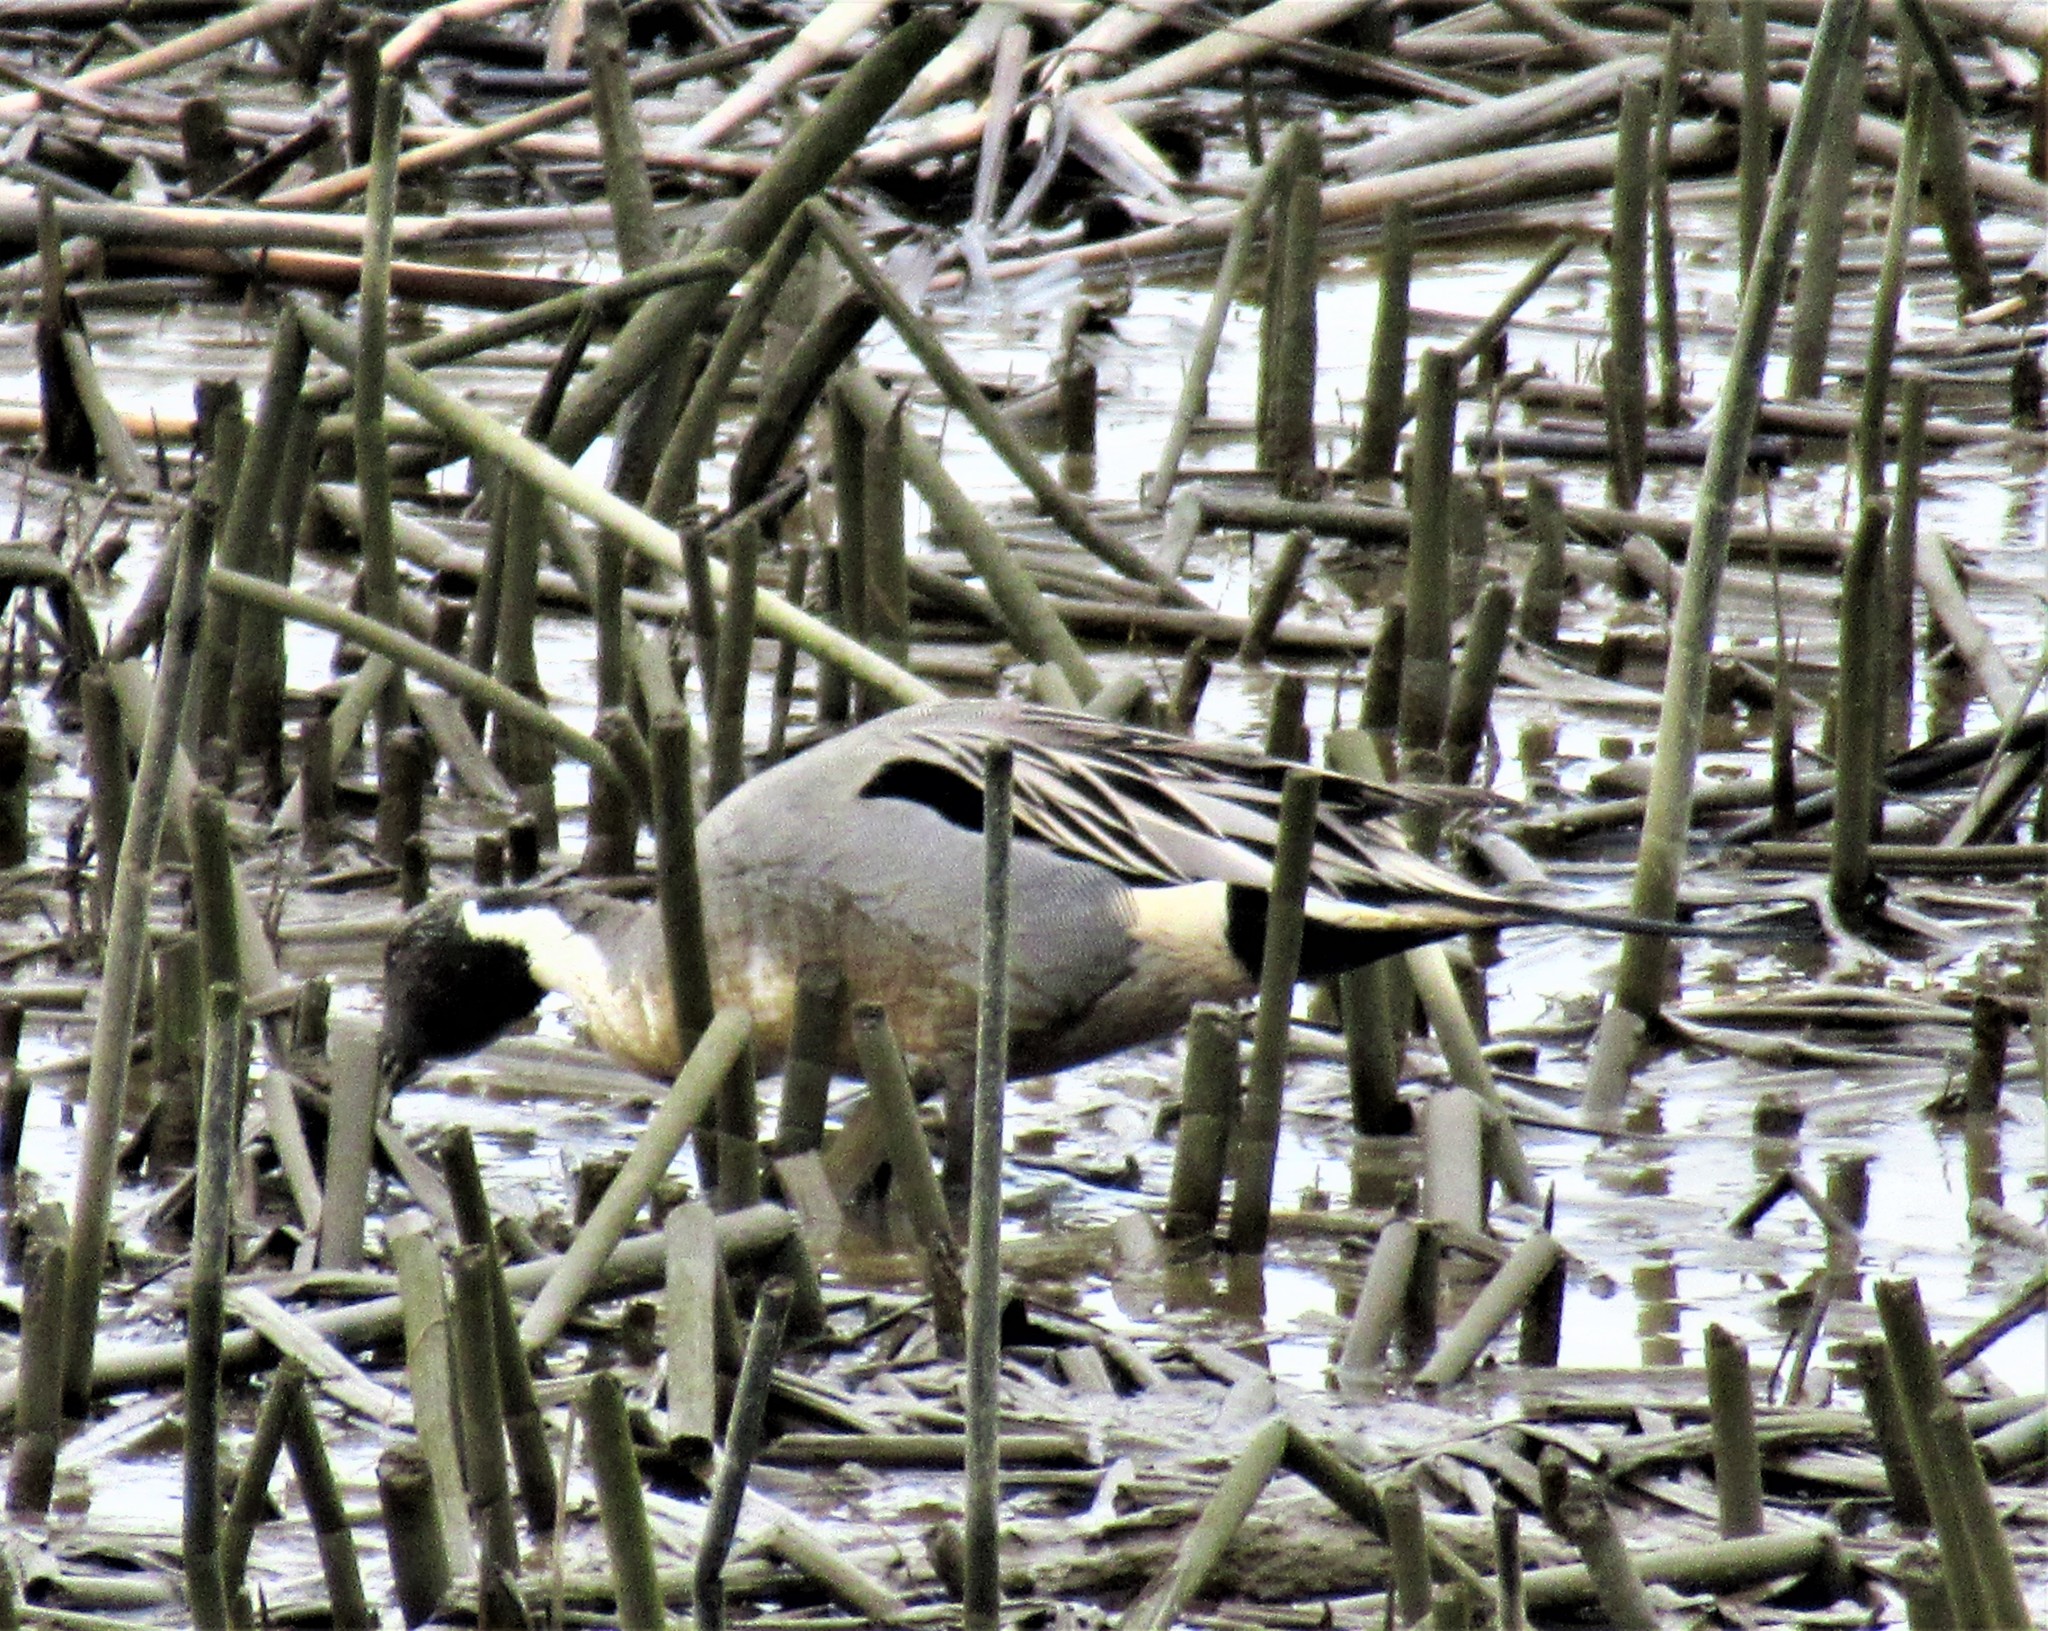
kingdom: Animalia
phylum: Chordata
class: Aves
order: Anseriformes
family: Anatidae
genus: Anas
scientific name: Anas acuta
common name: Northern pintail
